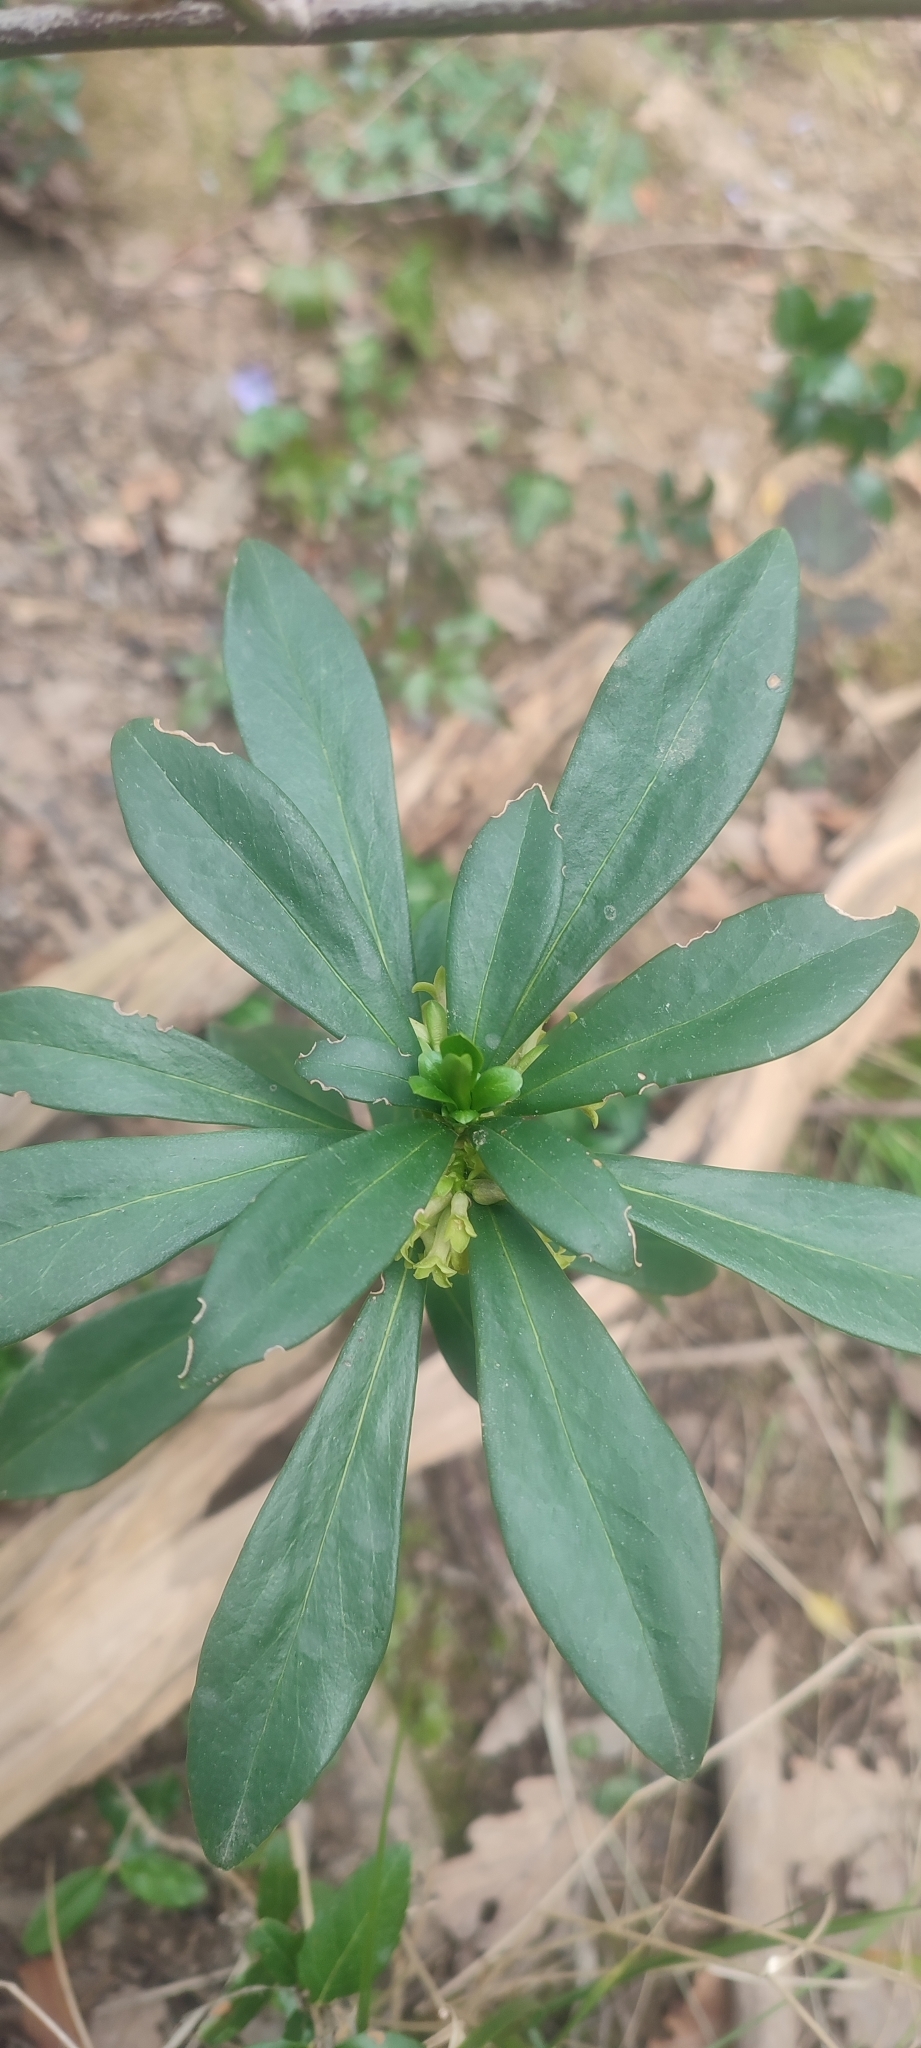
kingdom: Plantae
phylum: Tracheophyta
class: Magnoliopsida
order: Malvales
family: Thymelaeaceae
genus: Daphne
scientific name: Daphne laureola
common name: Spurge-laurel
